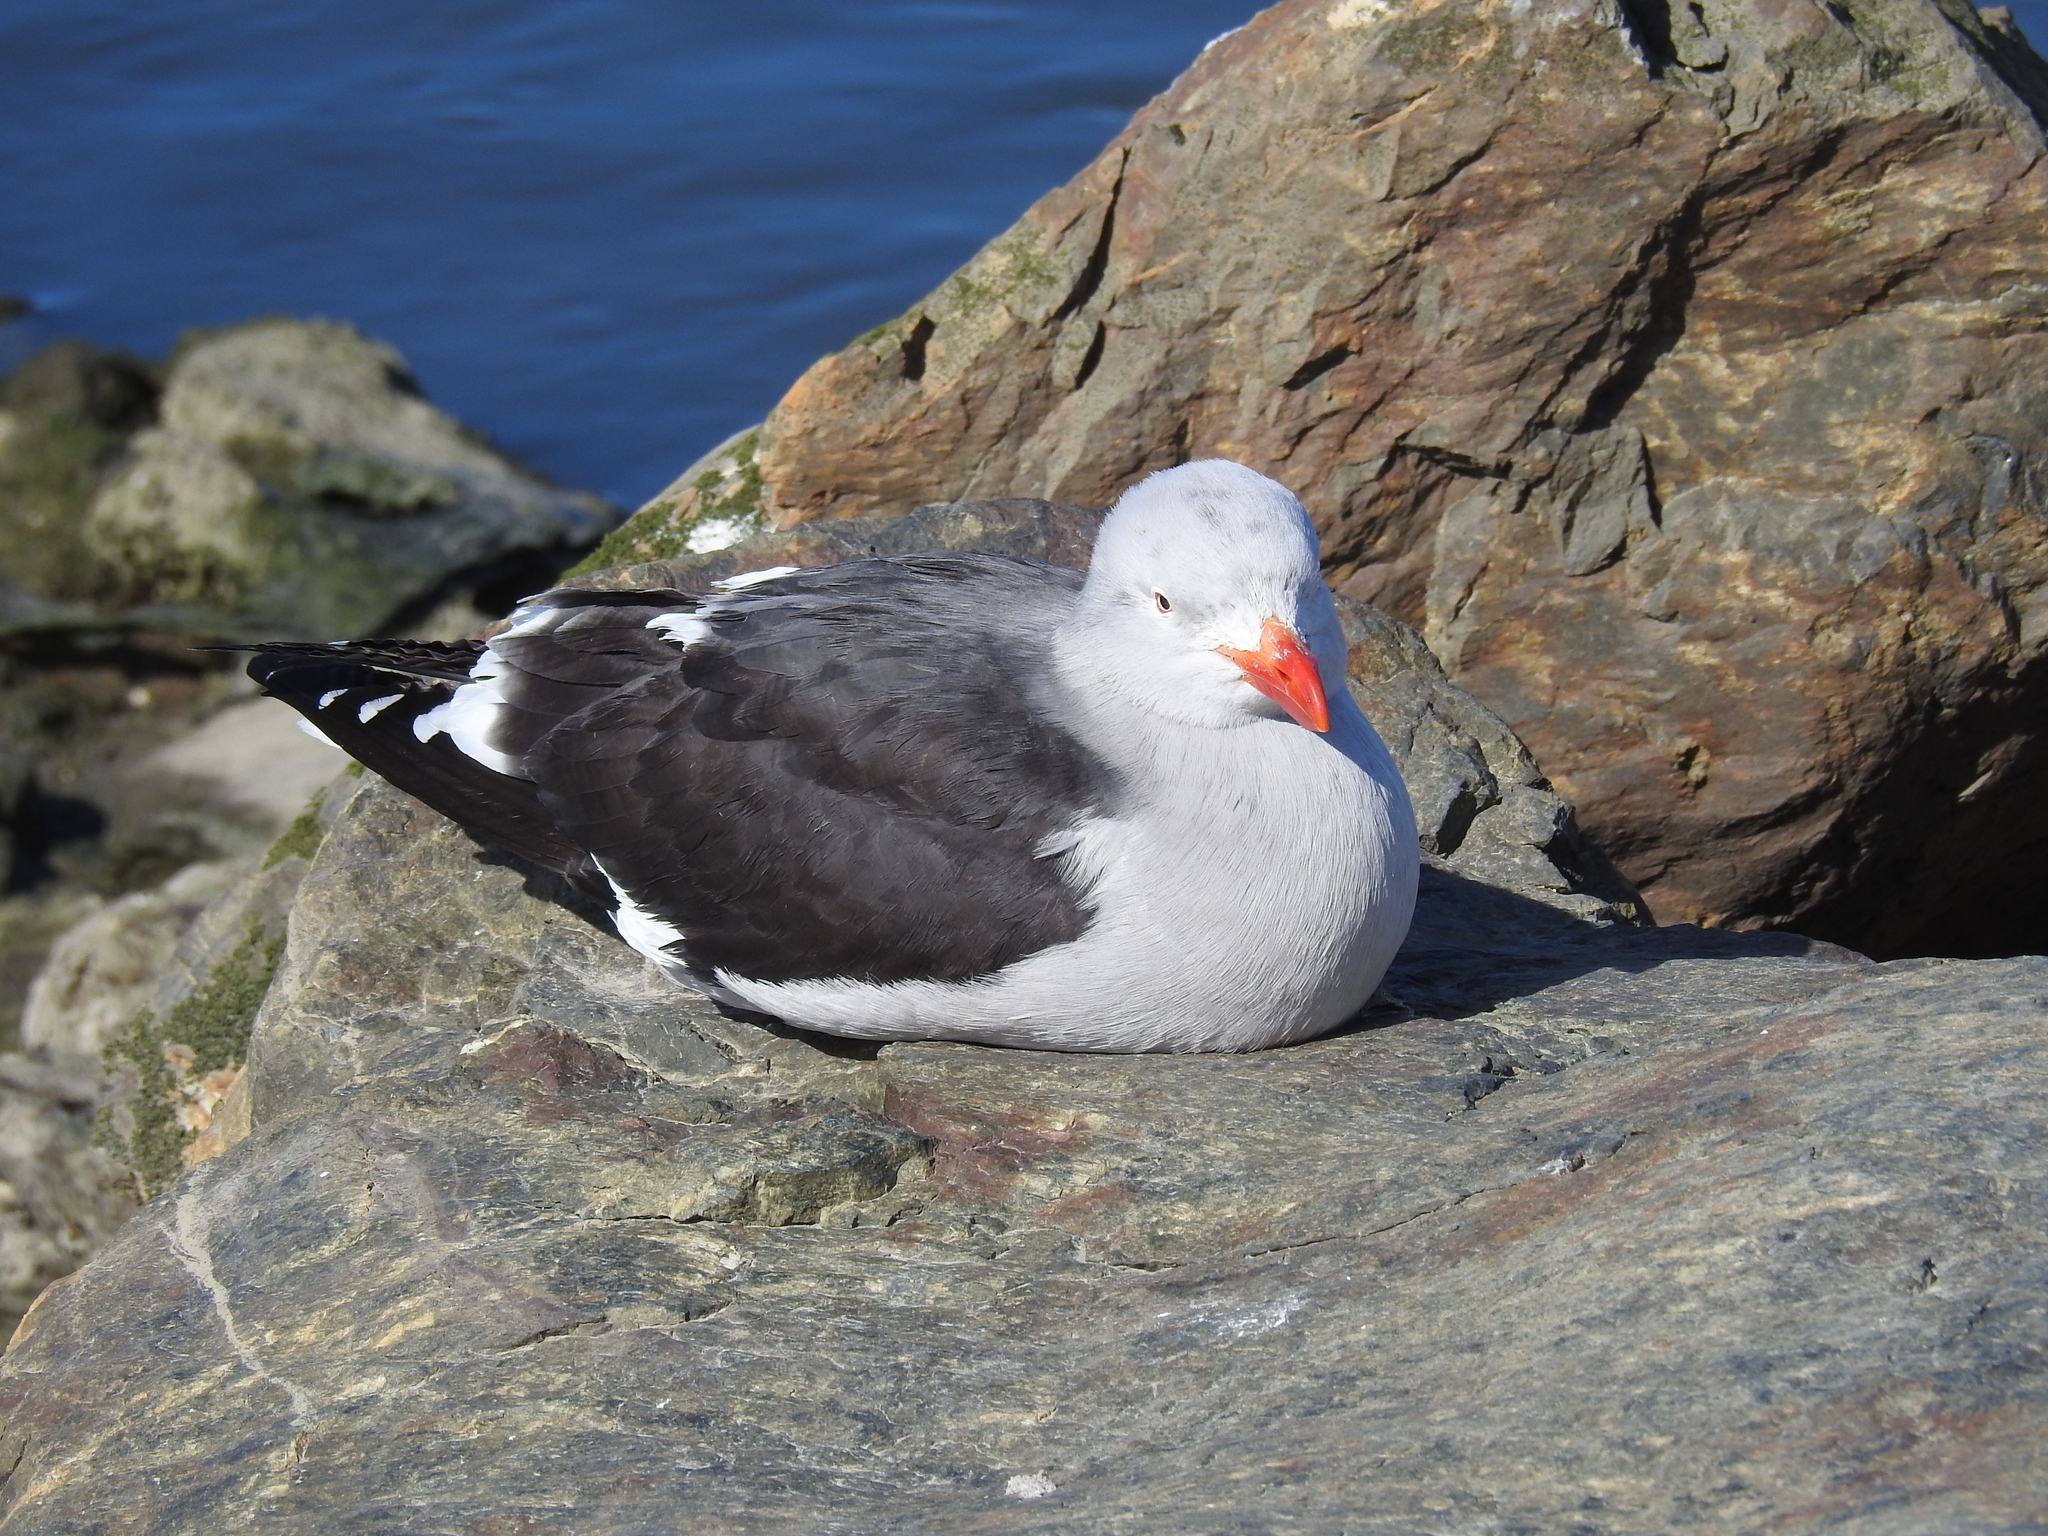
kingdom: Animalia
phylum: Chordata
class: Aves
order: Charadriiformes
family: Laridae
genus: Leucophaeus
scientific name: Leucophaeus scoresbii
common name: Dolphin gull
